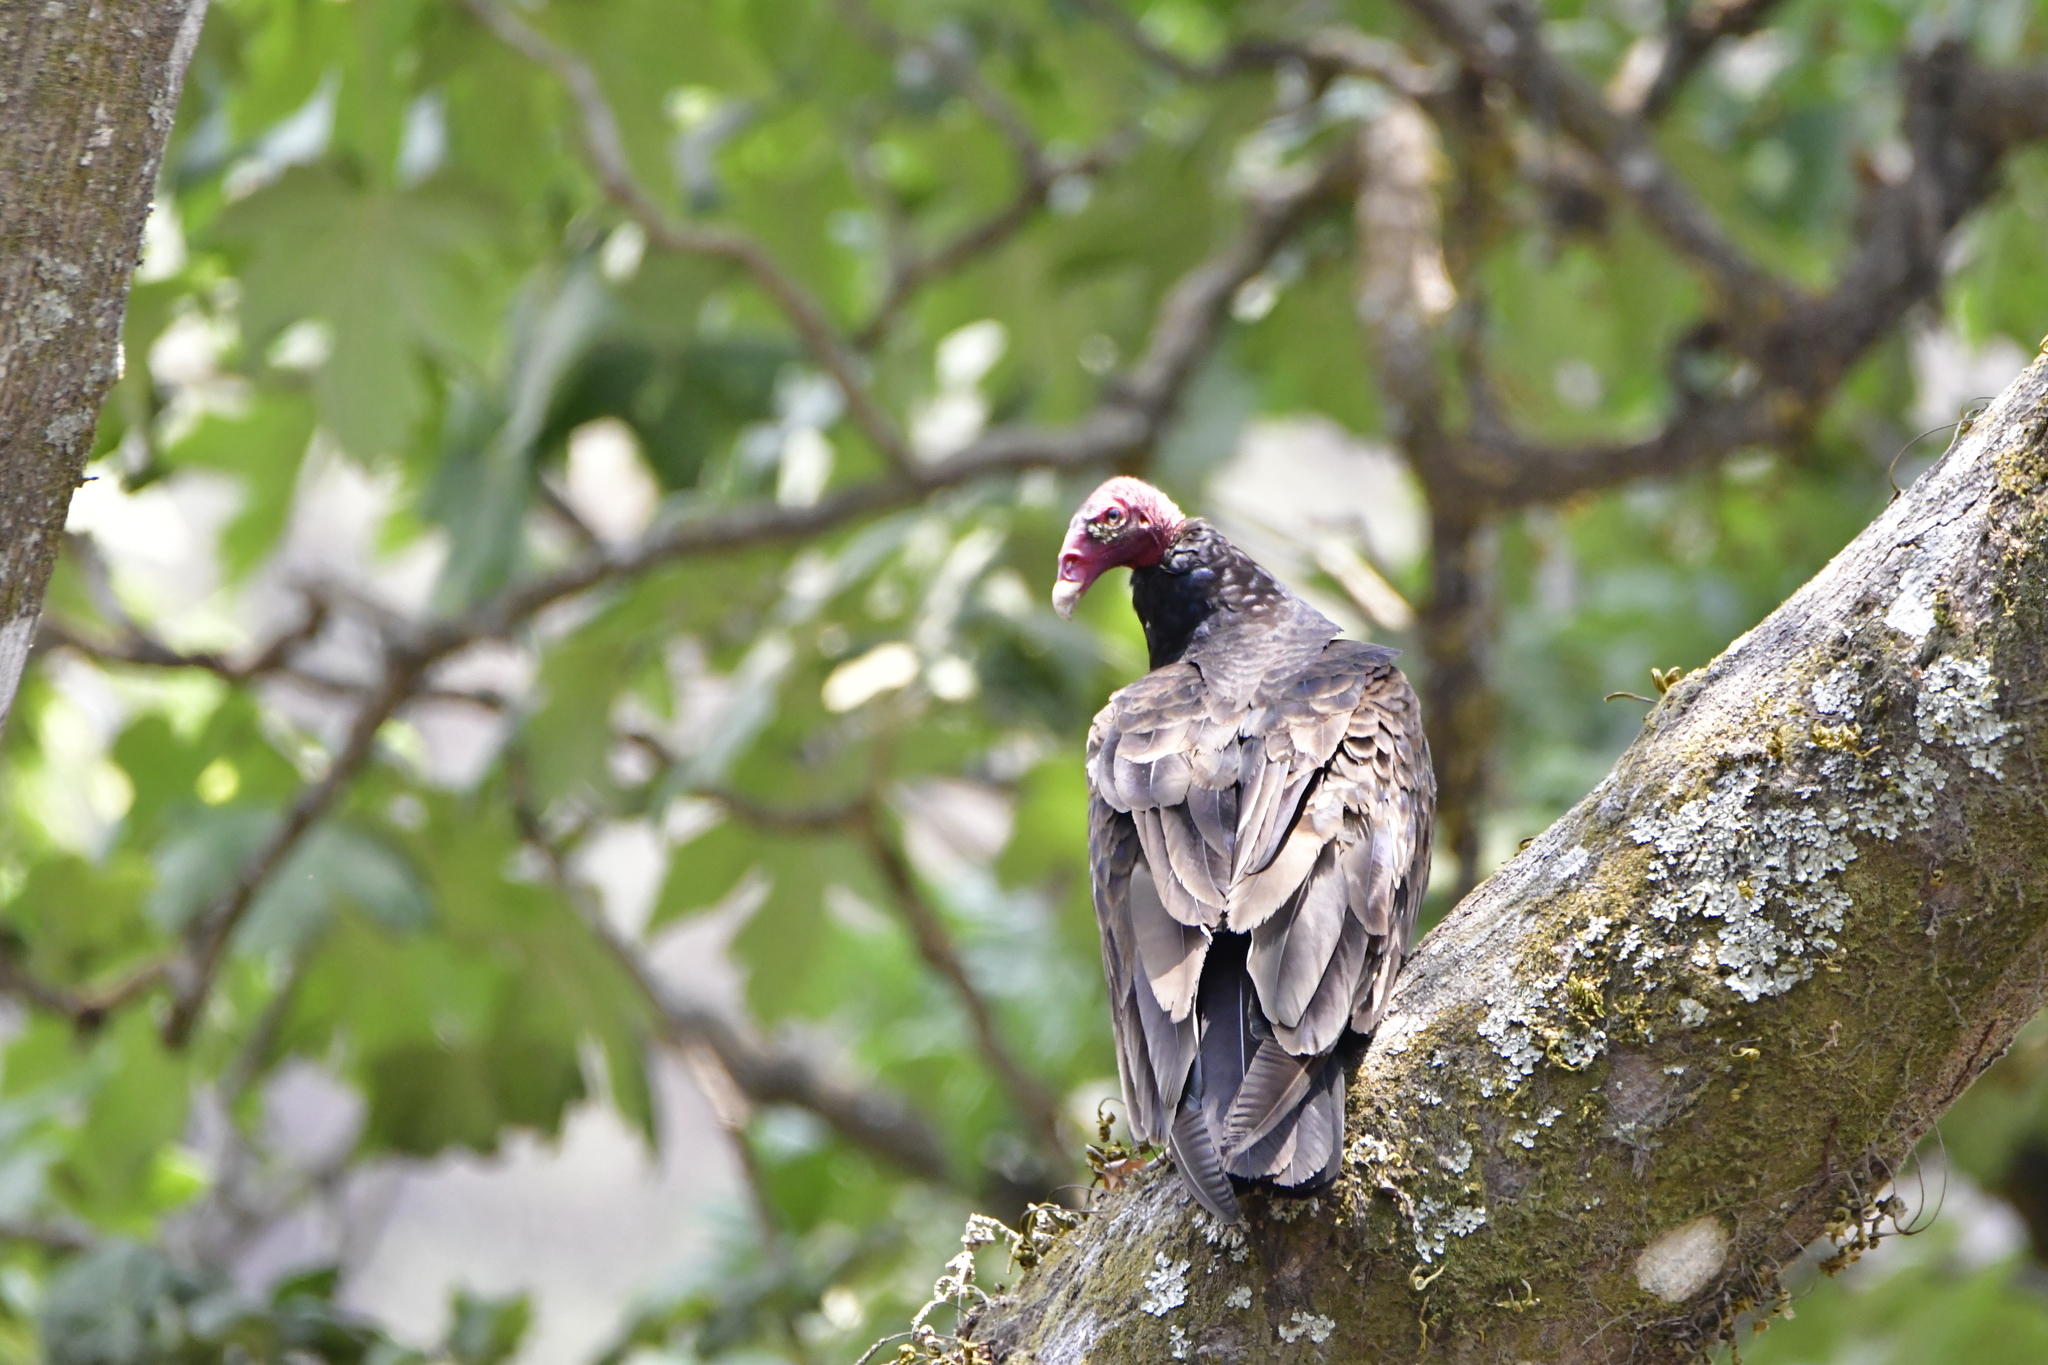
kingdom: Animalia
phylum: Chordata
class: Aves
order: Accipitriformes
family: Cathartidae
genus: Cathartes
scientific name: Cathartes aura
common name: Turkey vulture
